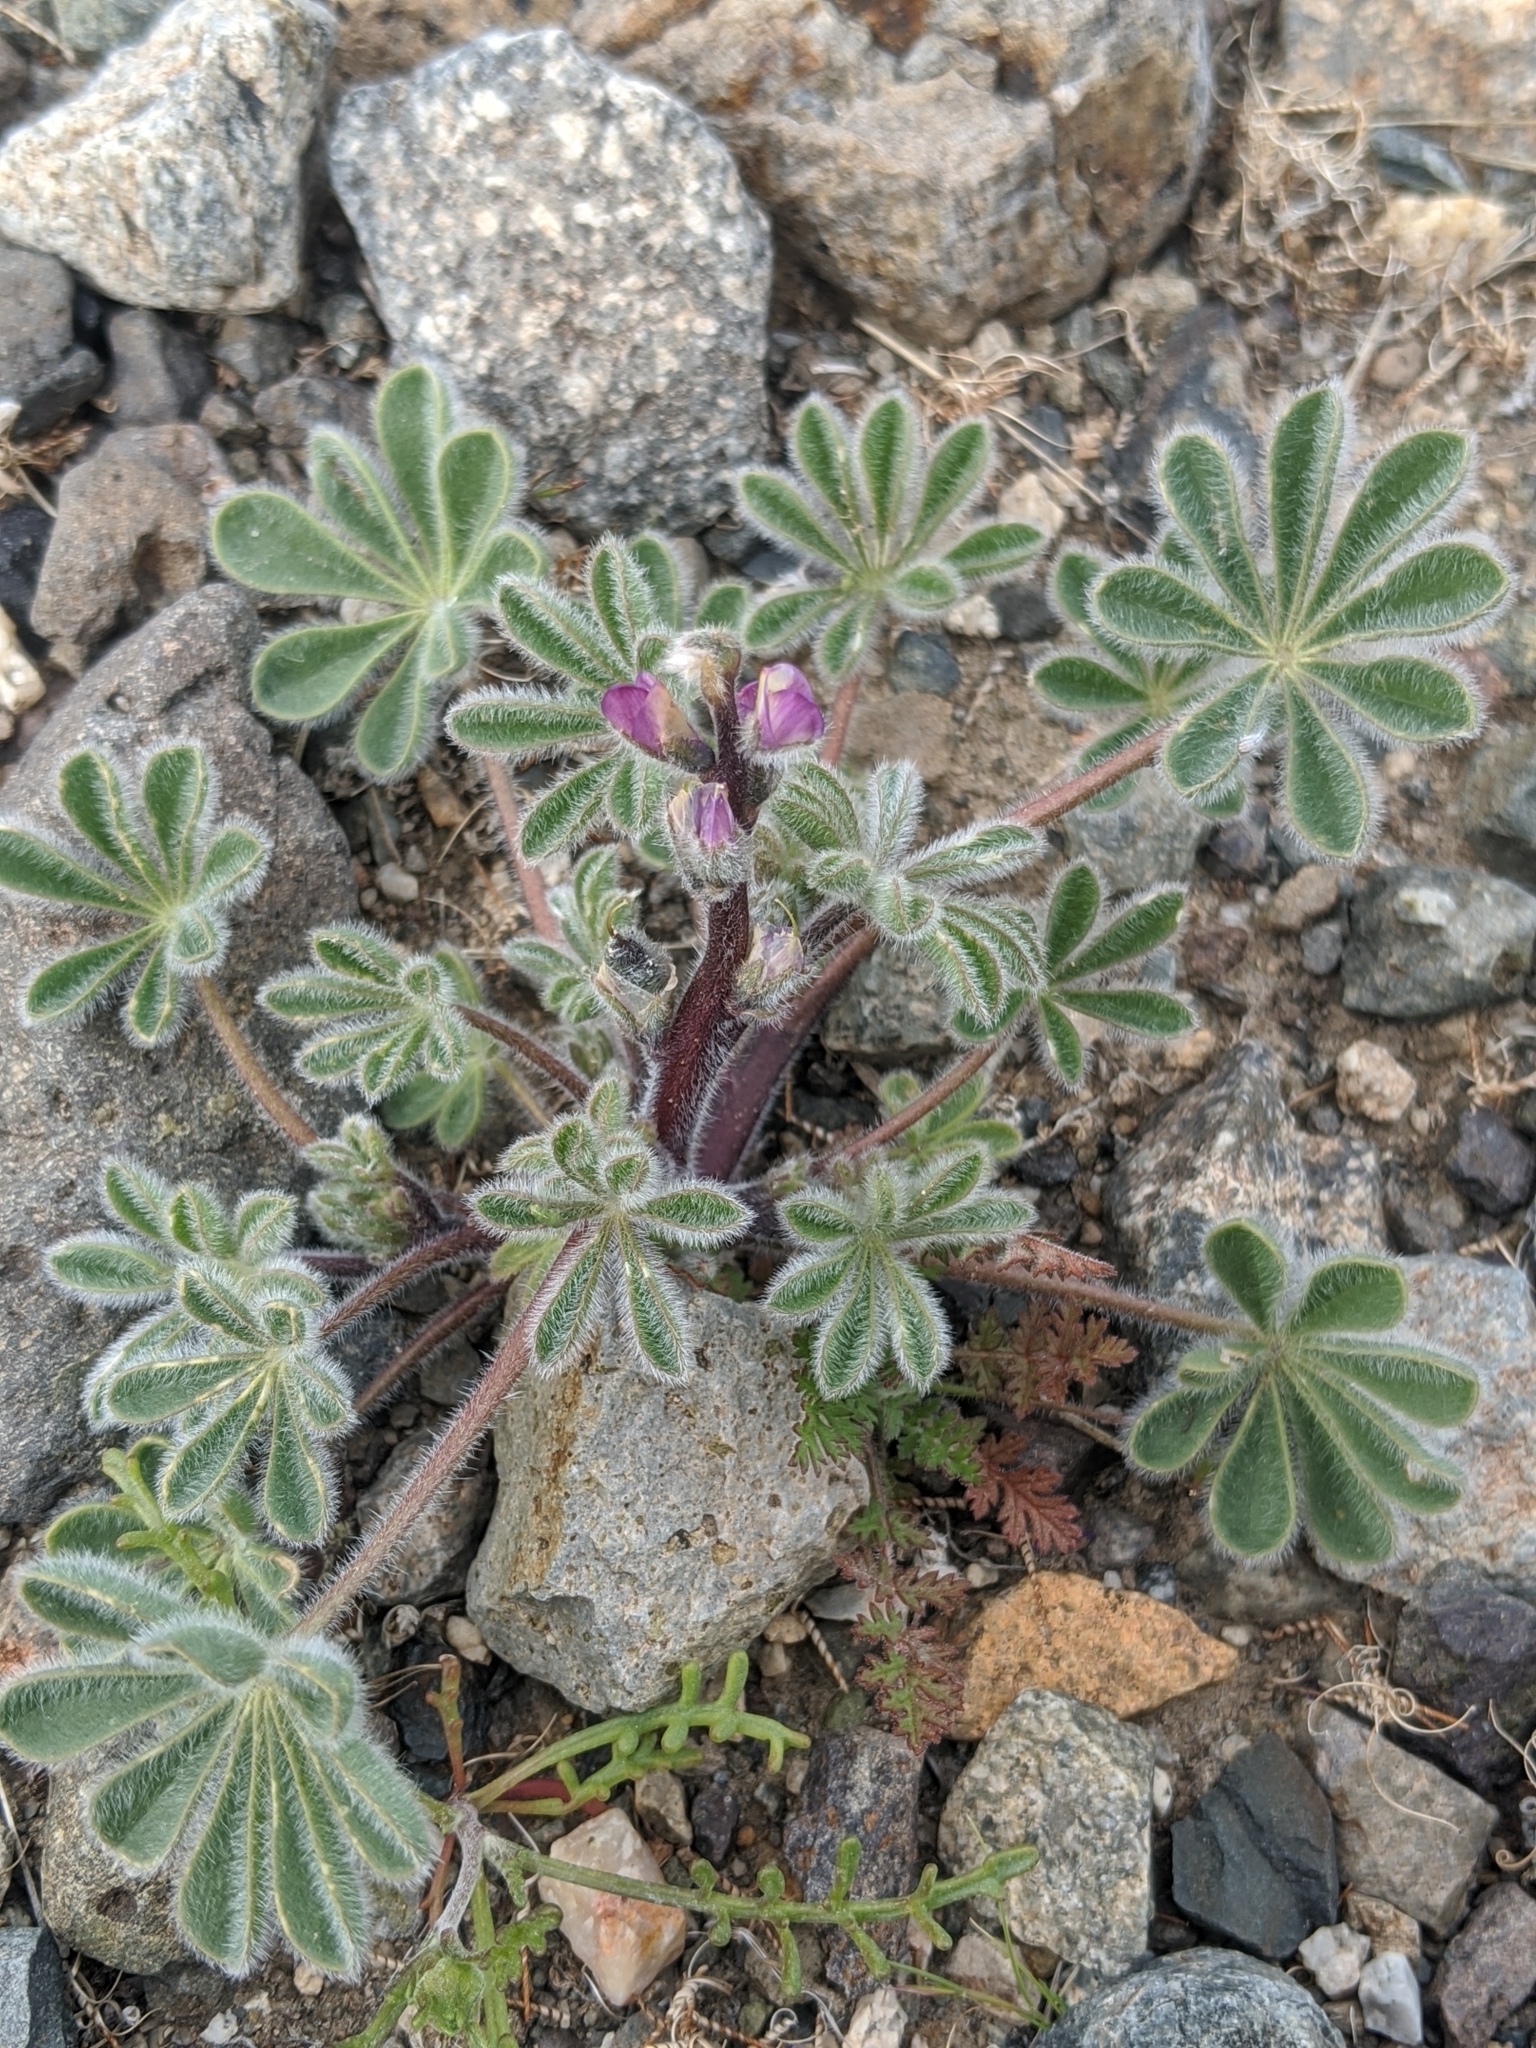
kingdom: Plantae
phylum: Tracheophyta
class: Magnoliopsida
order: Fabales
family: Fabaceae
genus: Lupinus
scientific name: Lupinus concinnus
